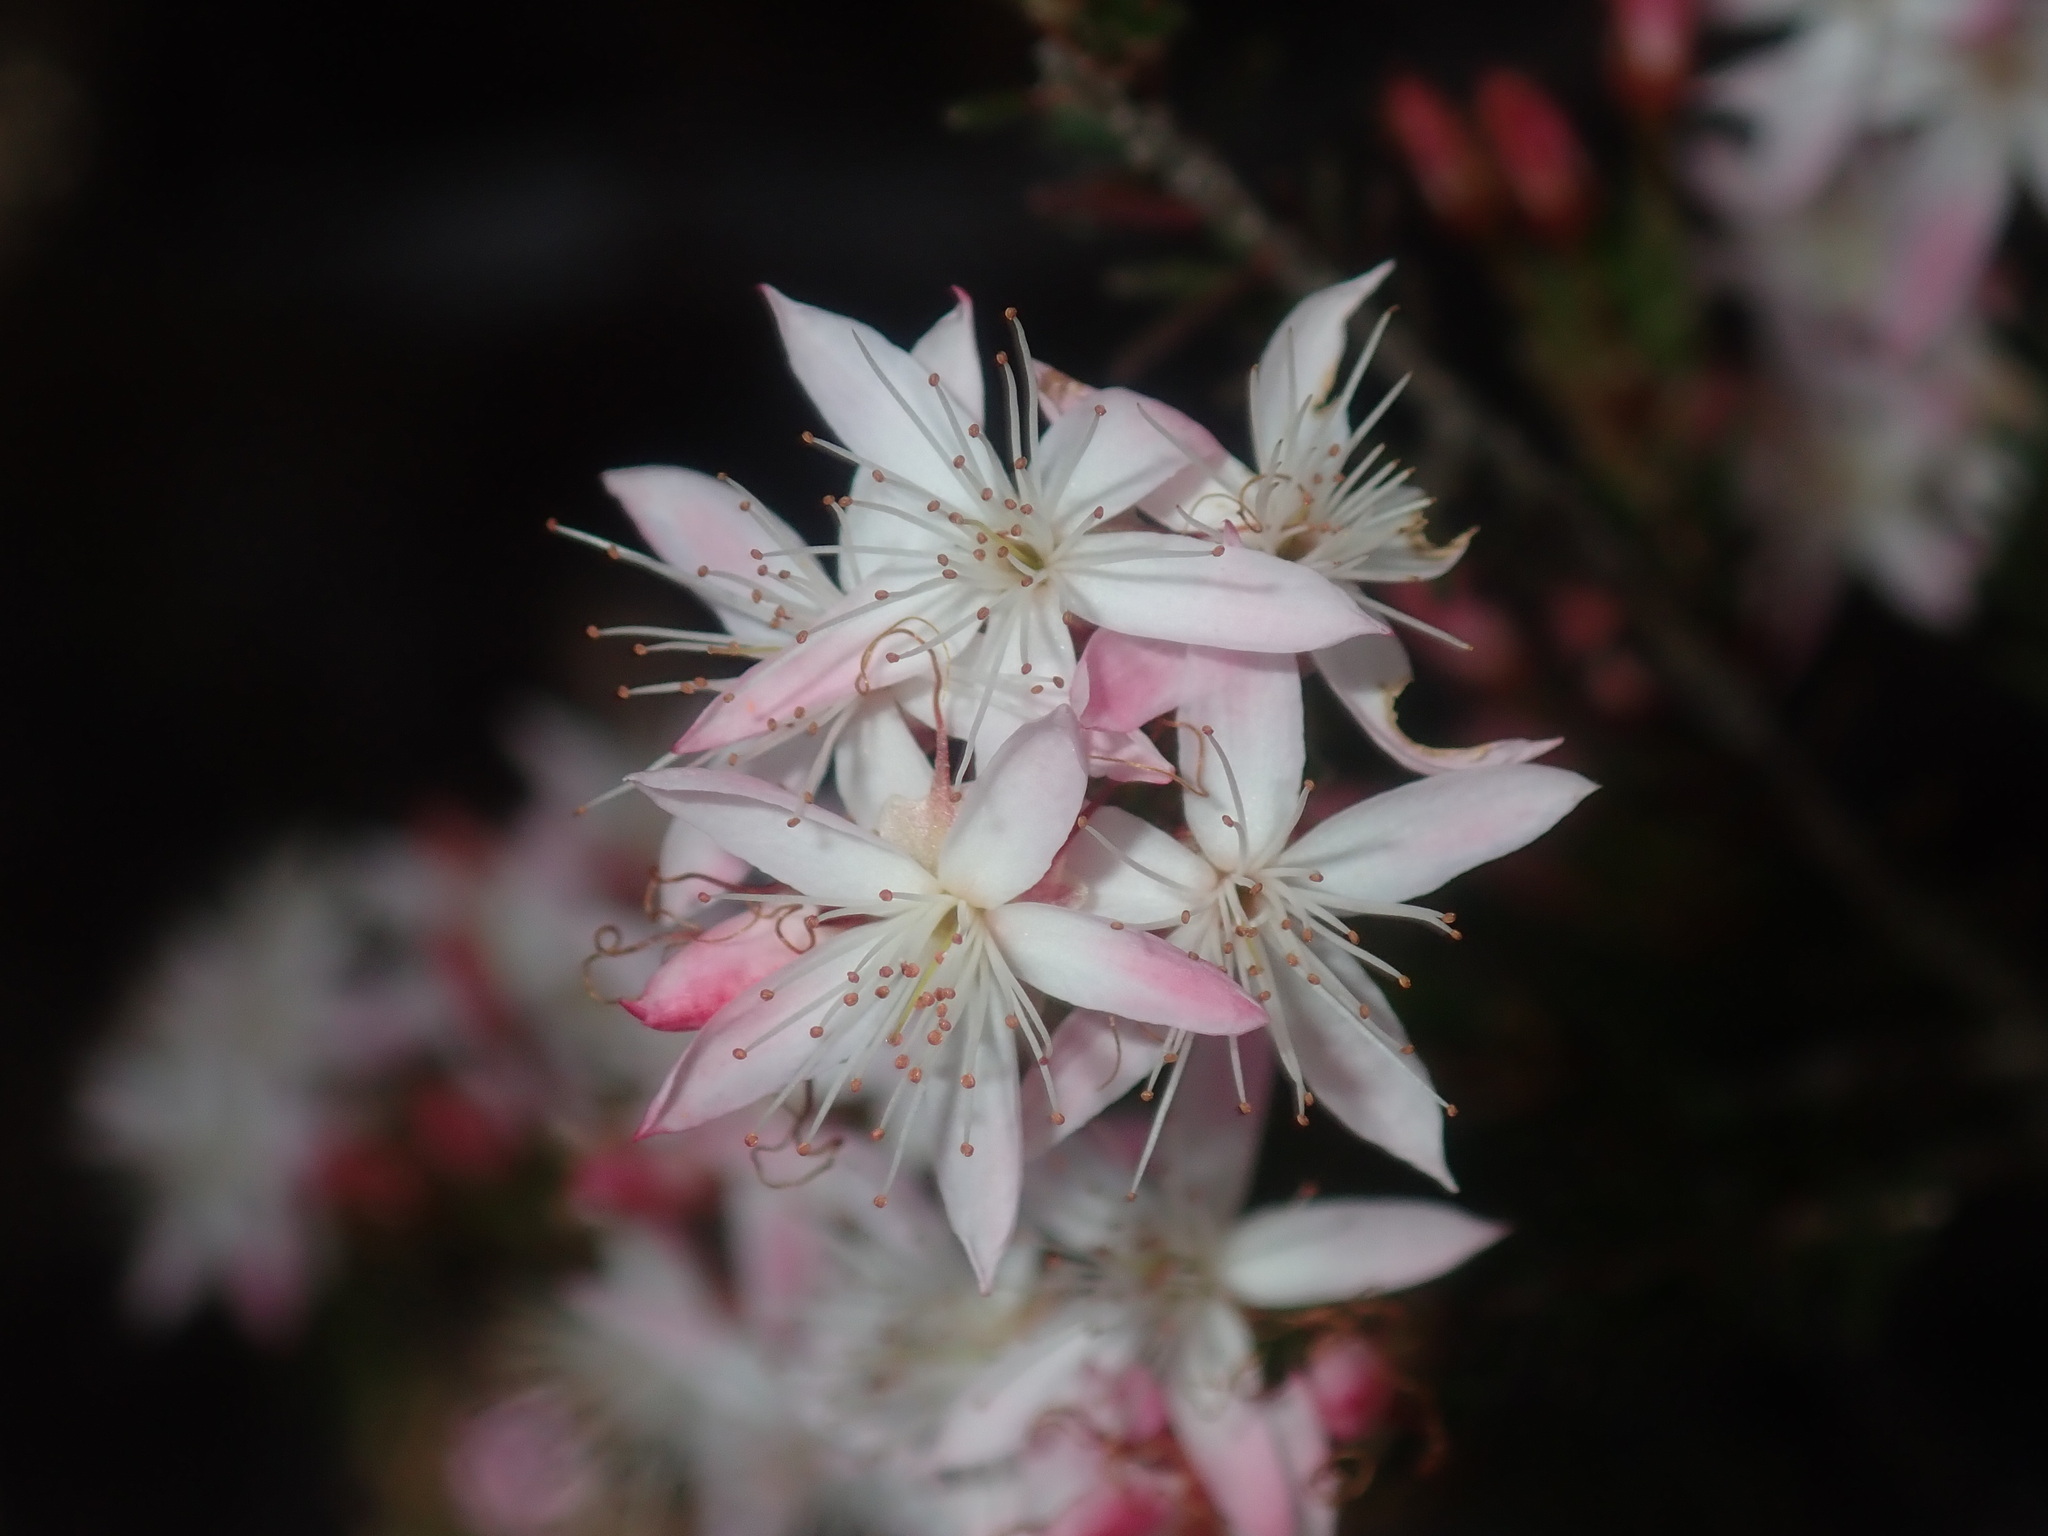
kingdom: Plantae
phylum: Tracheophyta
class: Magnoliopsida
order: Myrtales
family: Myrtaceae
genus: Calytrix
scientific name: Calytrix tetragona
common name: Common fringe myrtle
